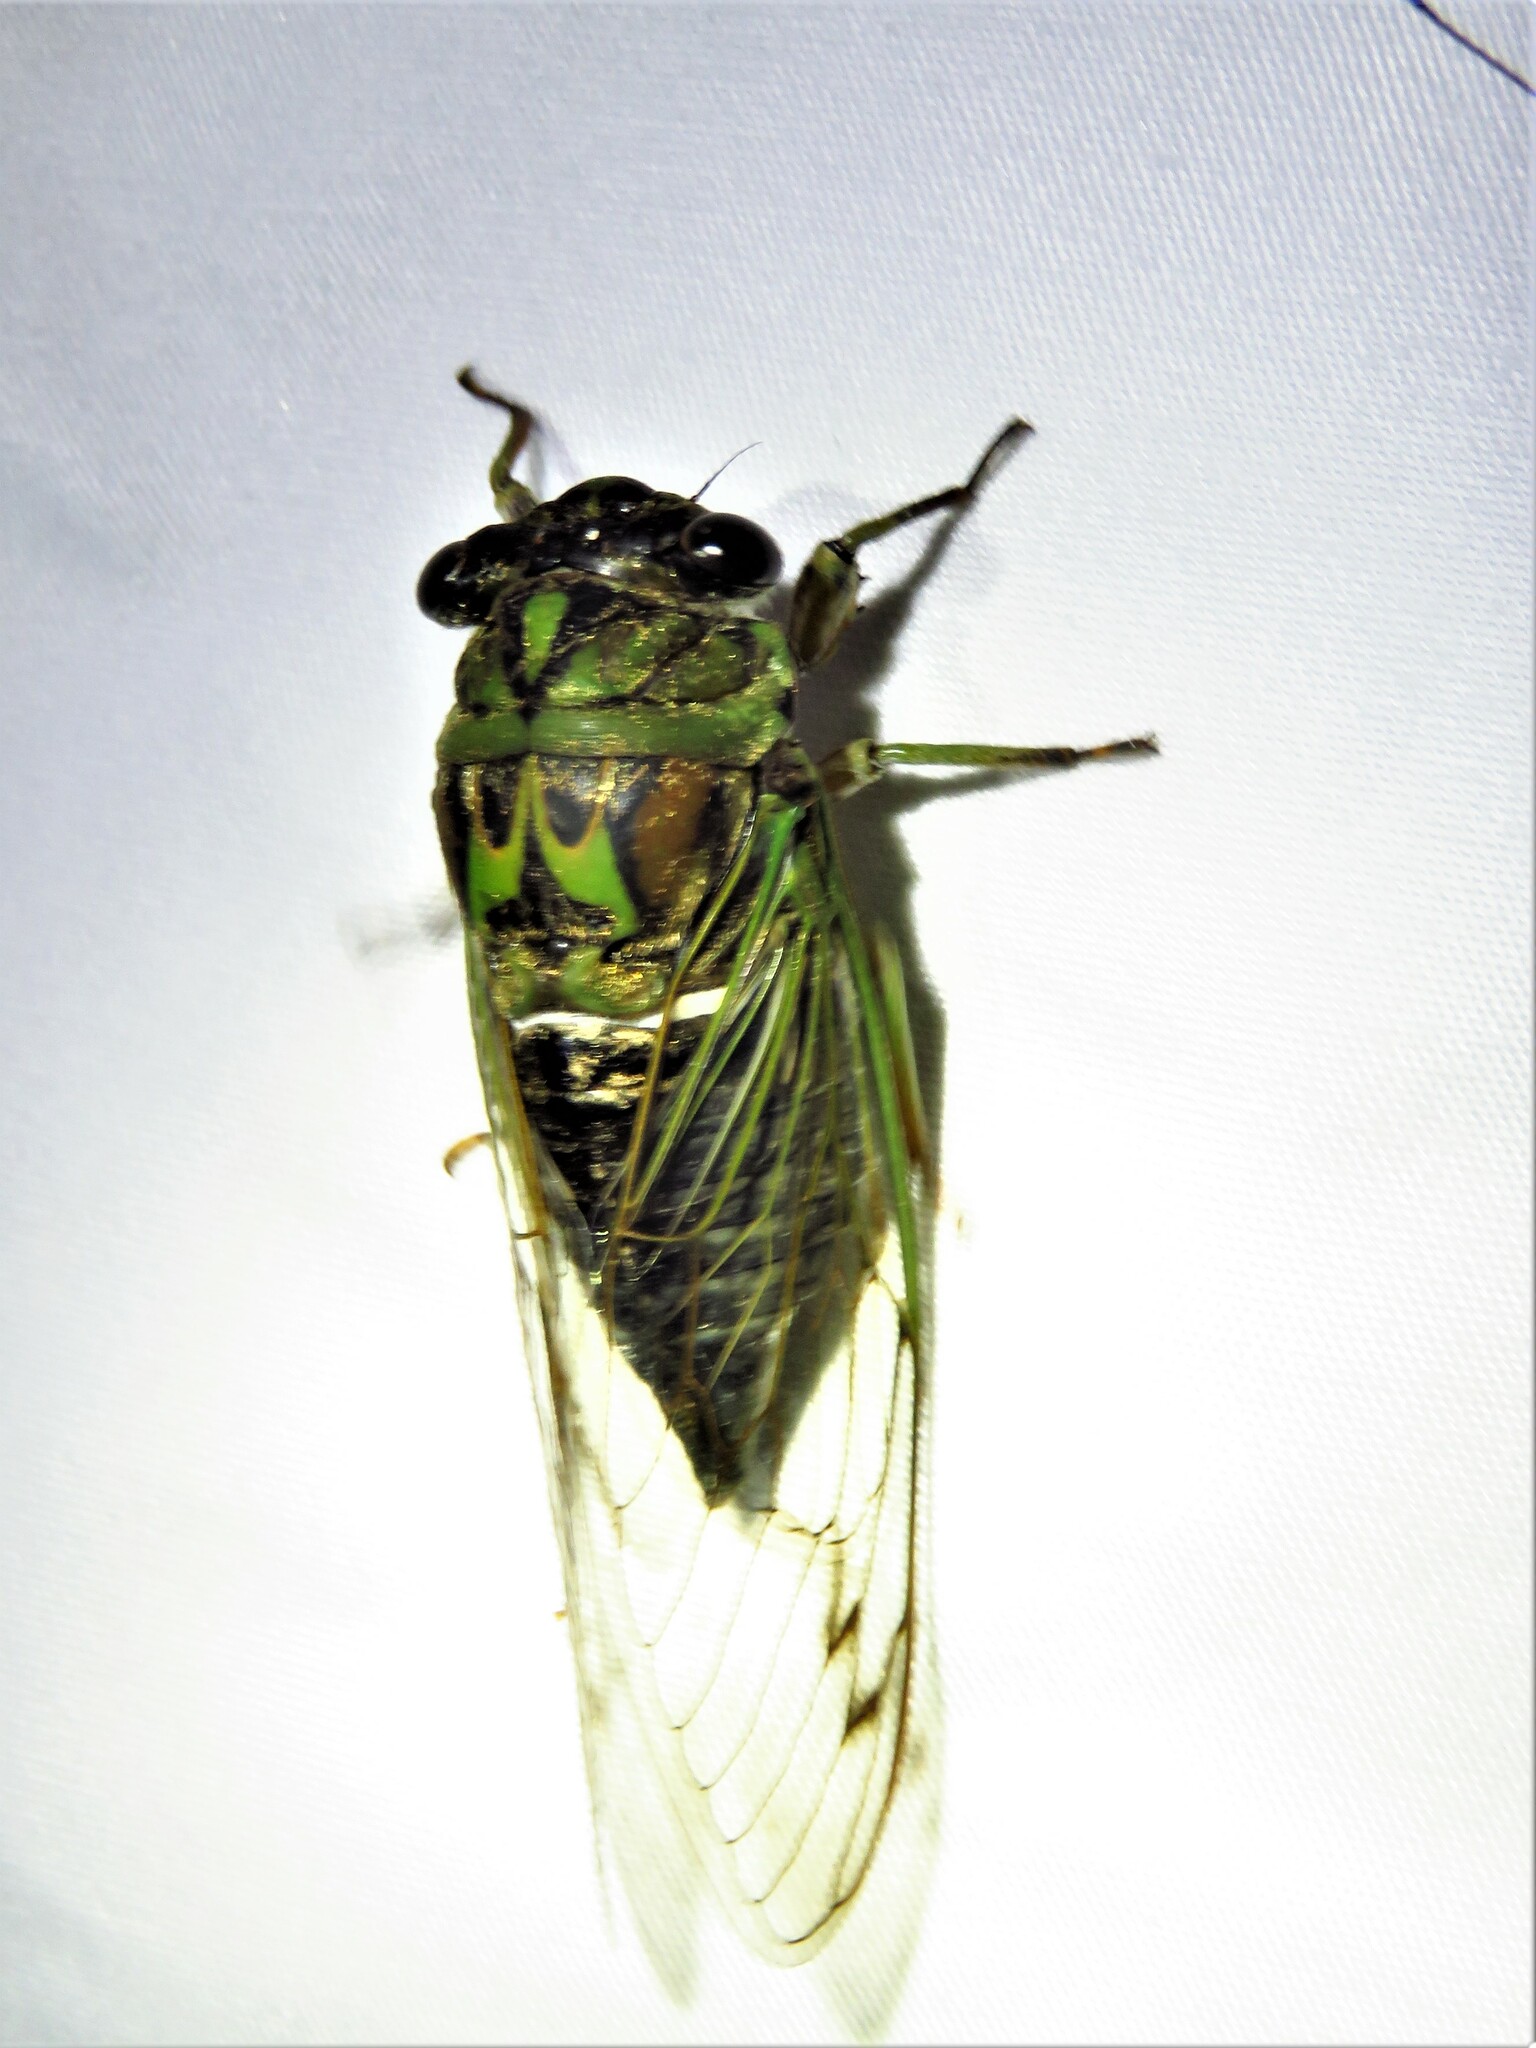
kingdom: Animalia
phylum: Arthropoda
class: Insecta
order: Hemiptera
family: Cicadidae
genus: Neotibicen
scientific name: Neotibicen robinsonianus
